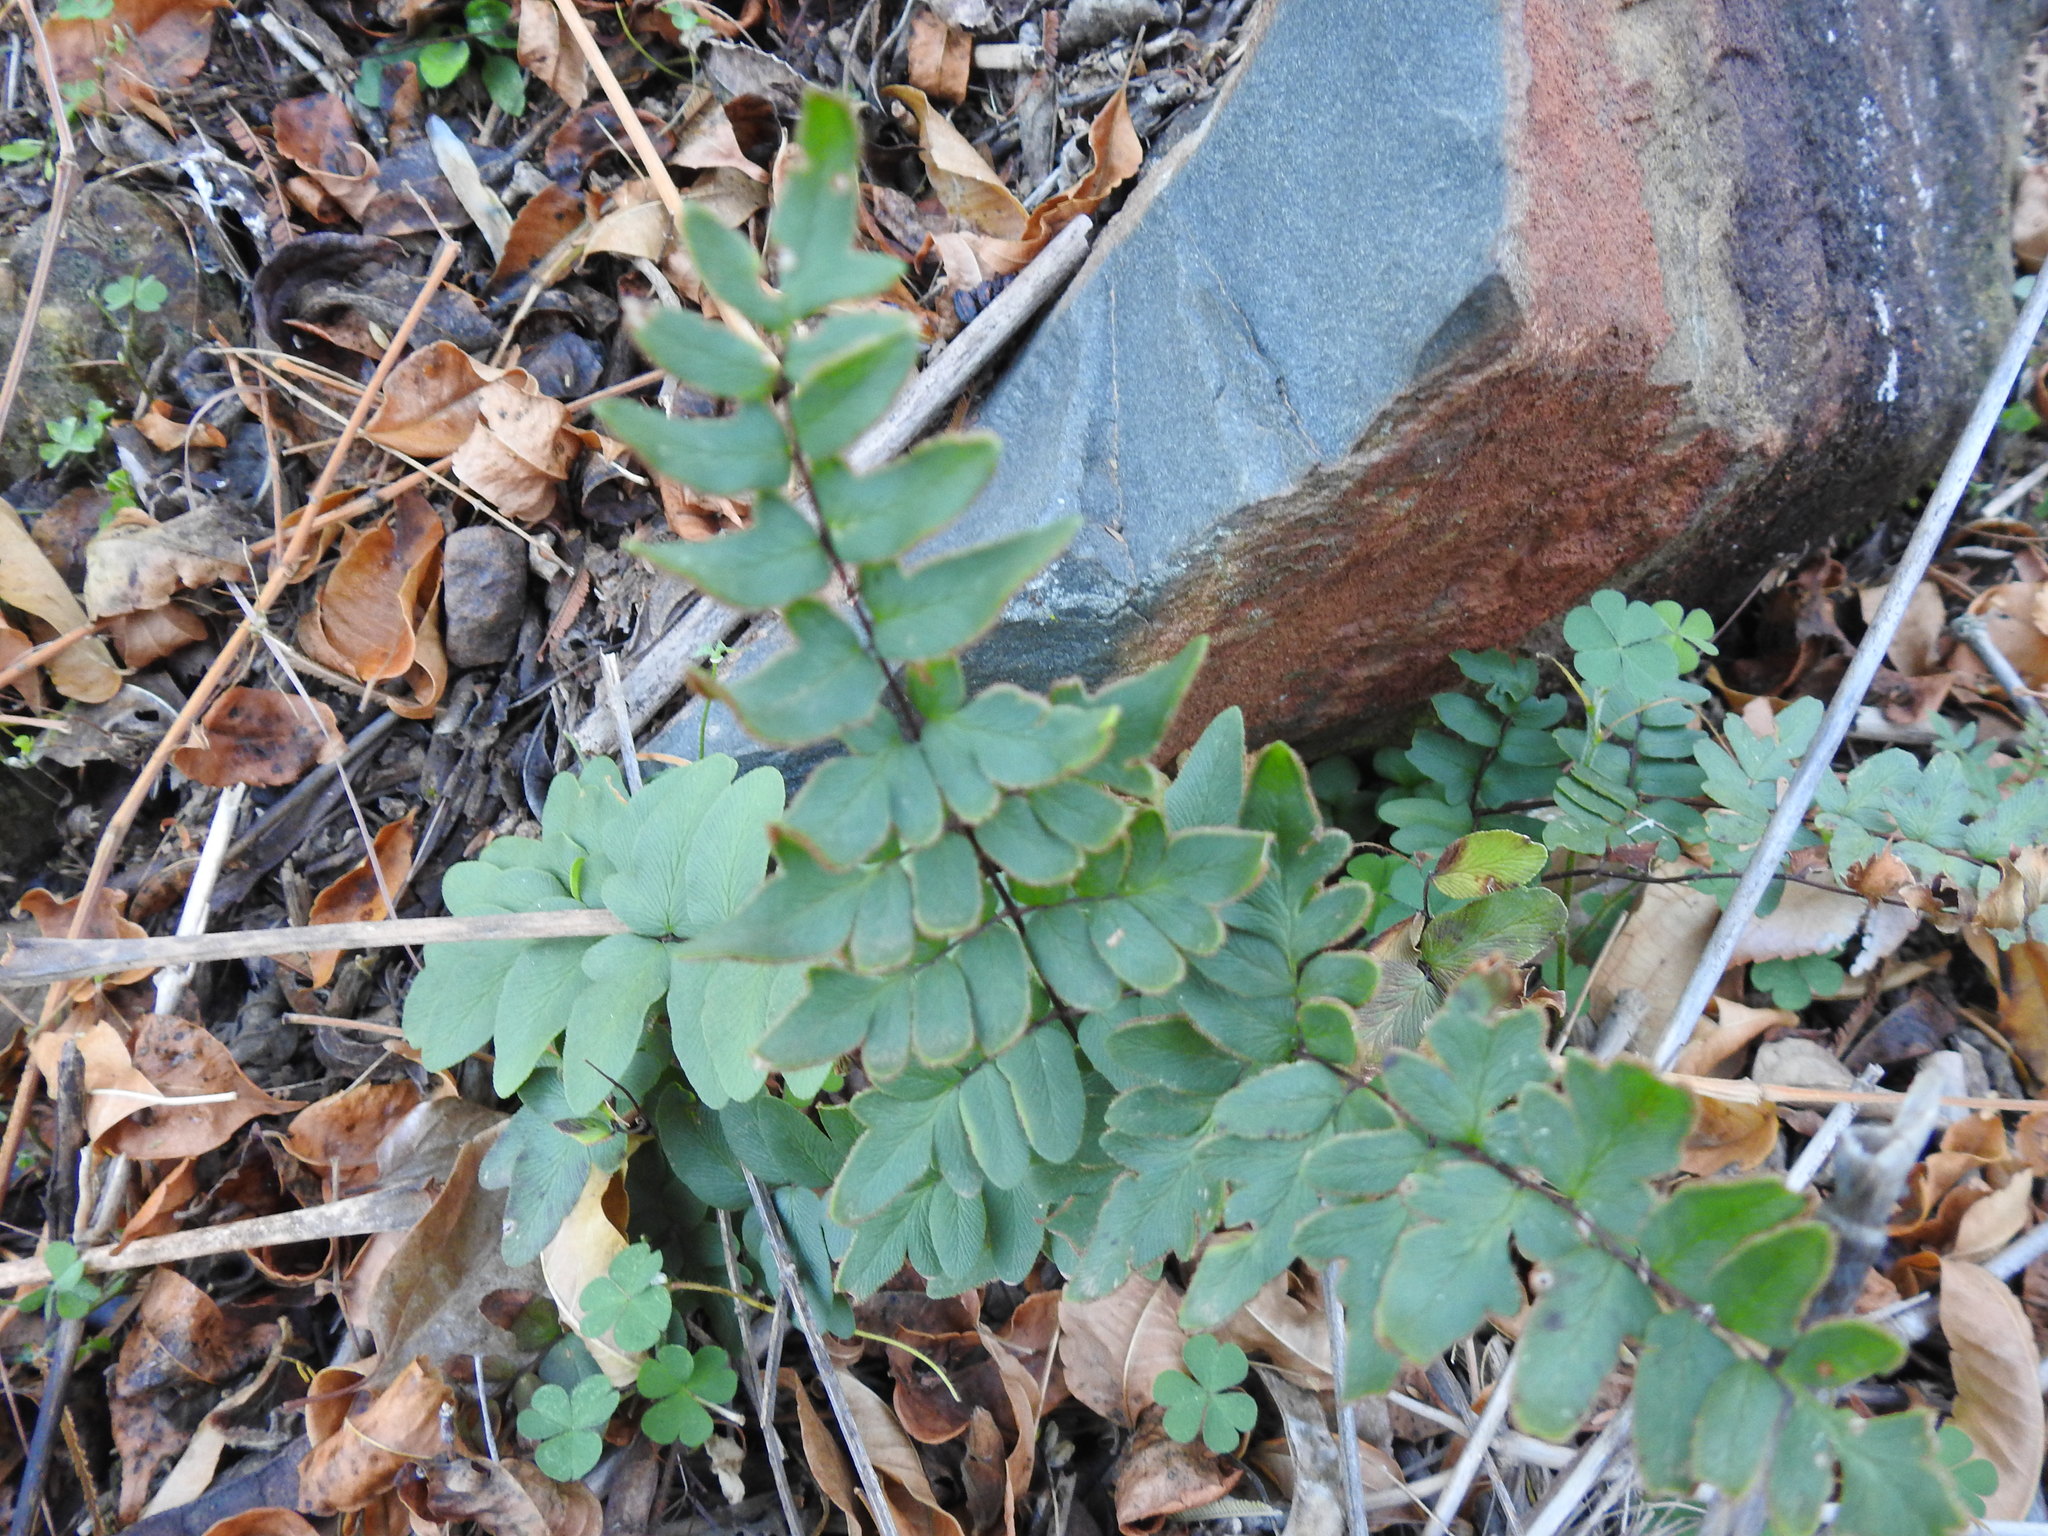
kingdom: Plantae
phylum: Tracheophyta
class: Polypodiopsida
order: Polypodiales
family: Pteridaceae
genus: Pellaea
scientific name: Pellaea calomelanos
